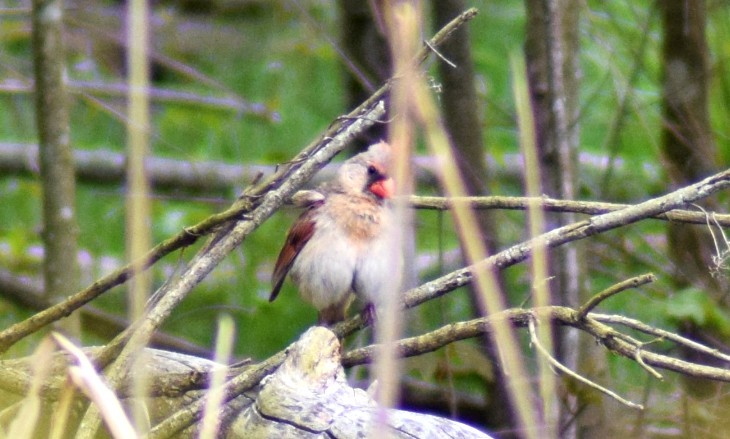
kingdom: Animalia
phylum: Chordata
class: Aves
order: Passeriformes
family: Cardinalidae
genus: Cardinalis
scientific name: Cardinalis cardinalis
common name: Northern cardinal
